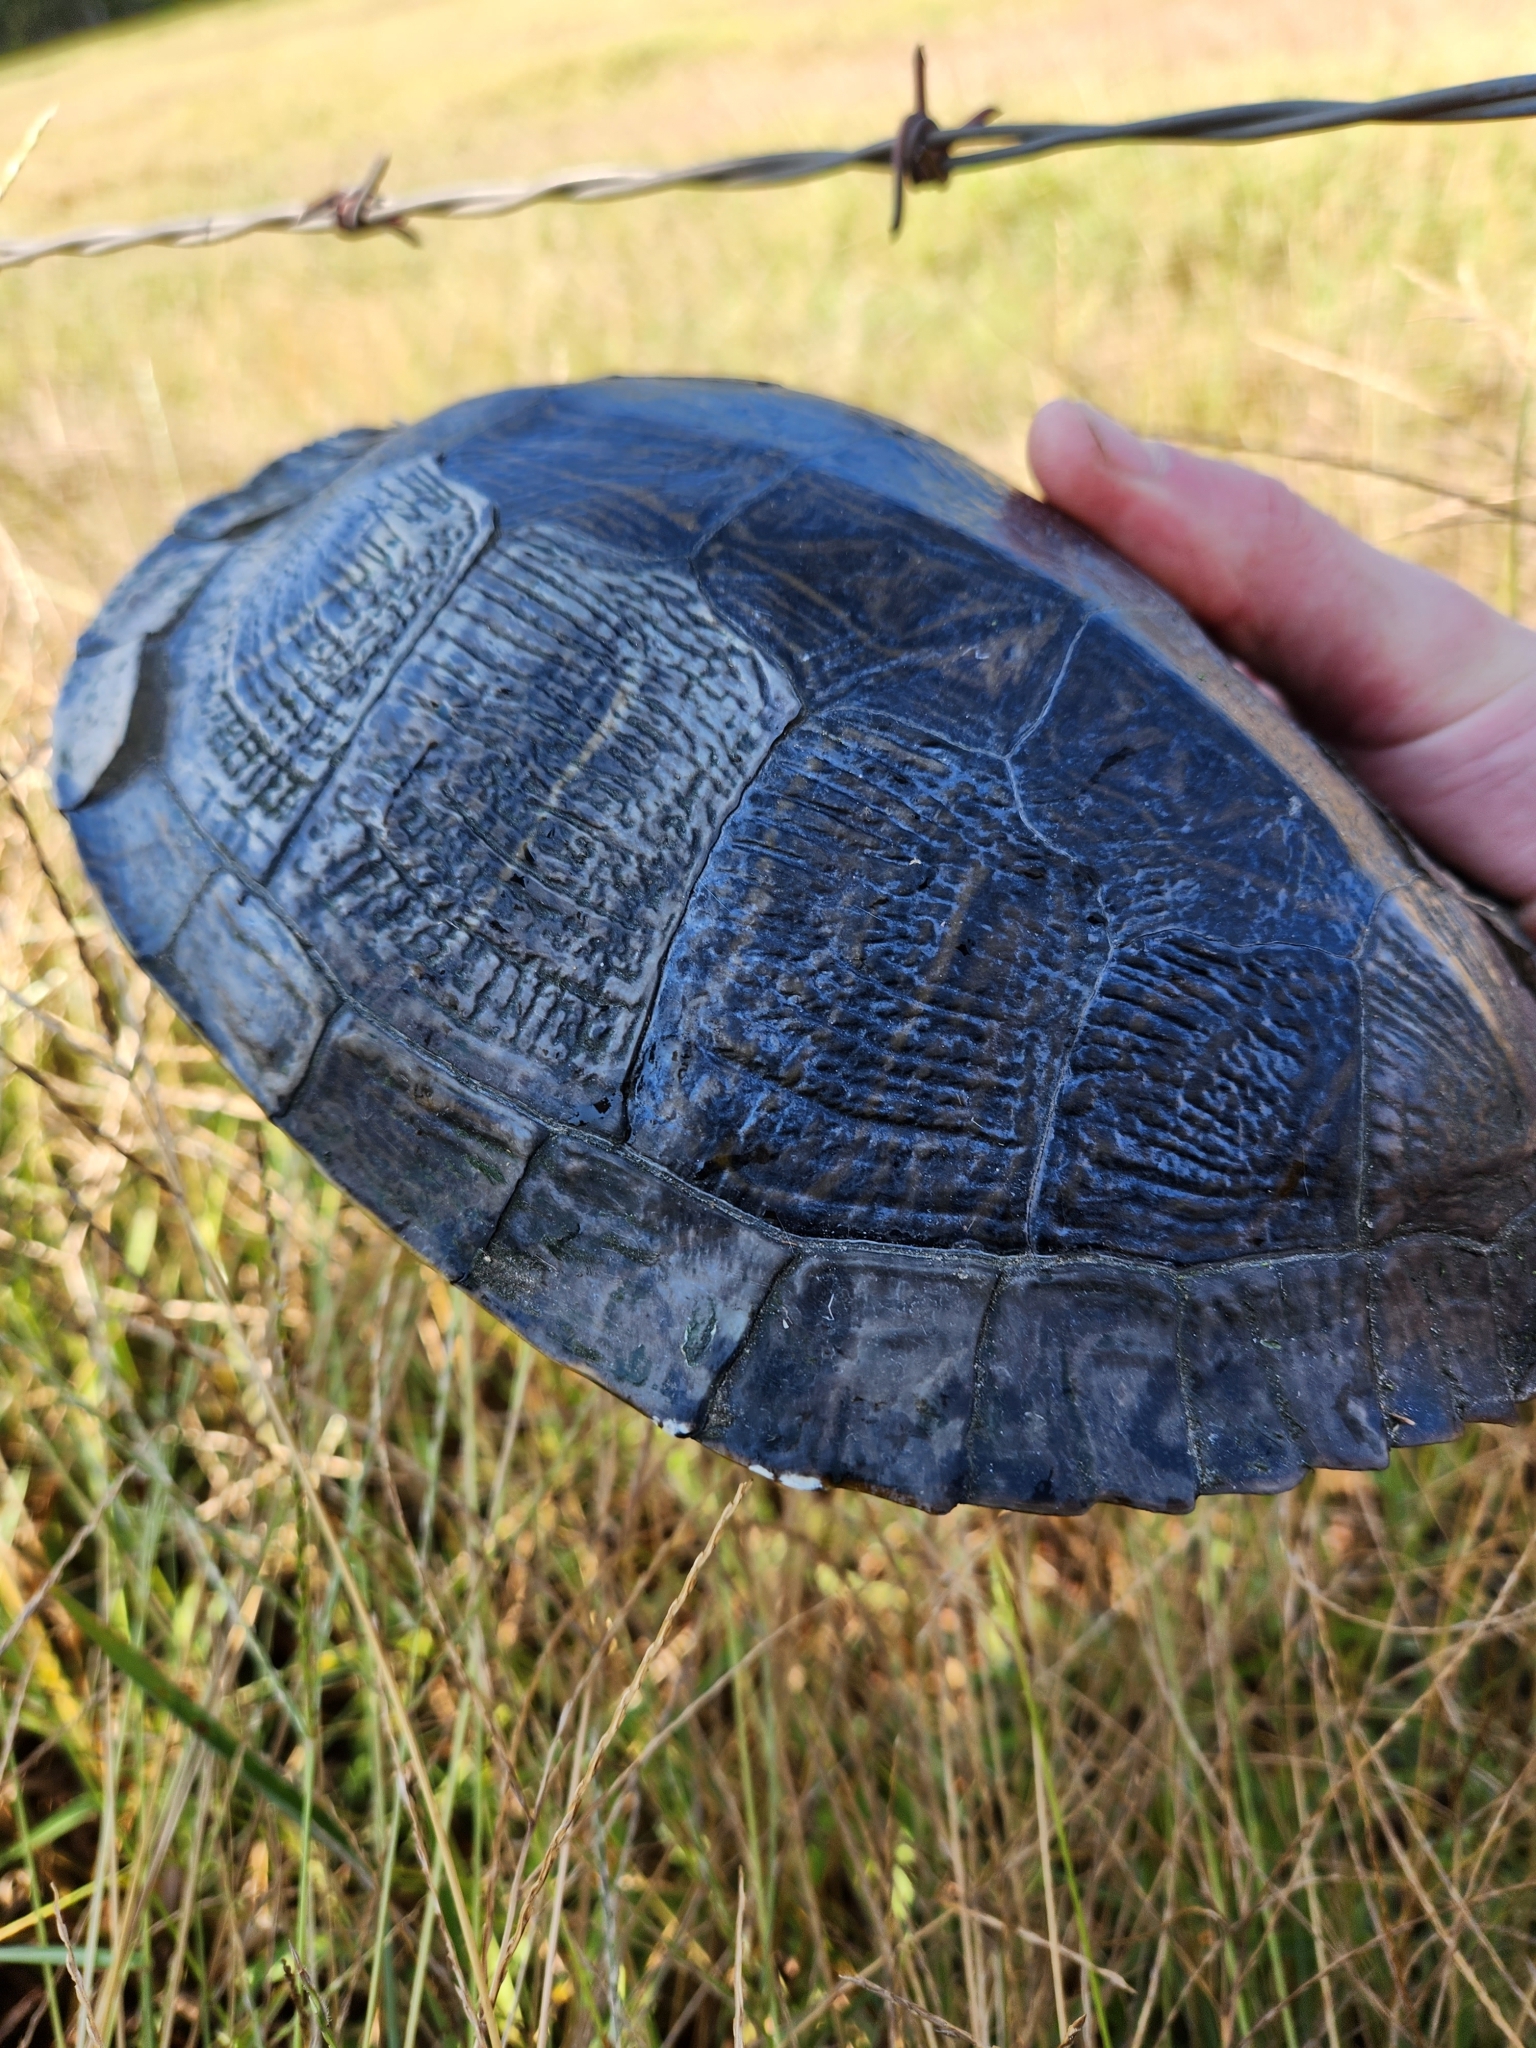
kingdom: Animalia
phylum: Chordata
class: Testudines
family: Emydidae
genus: Trachemys
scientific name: Trachemys scripta
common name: Slider
